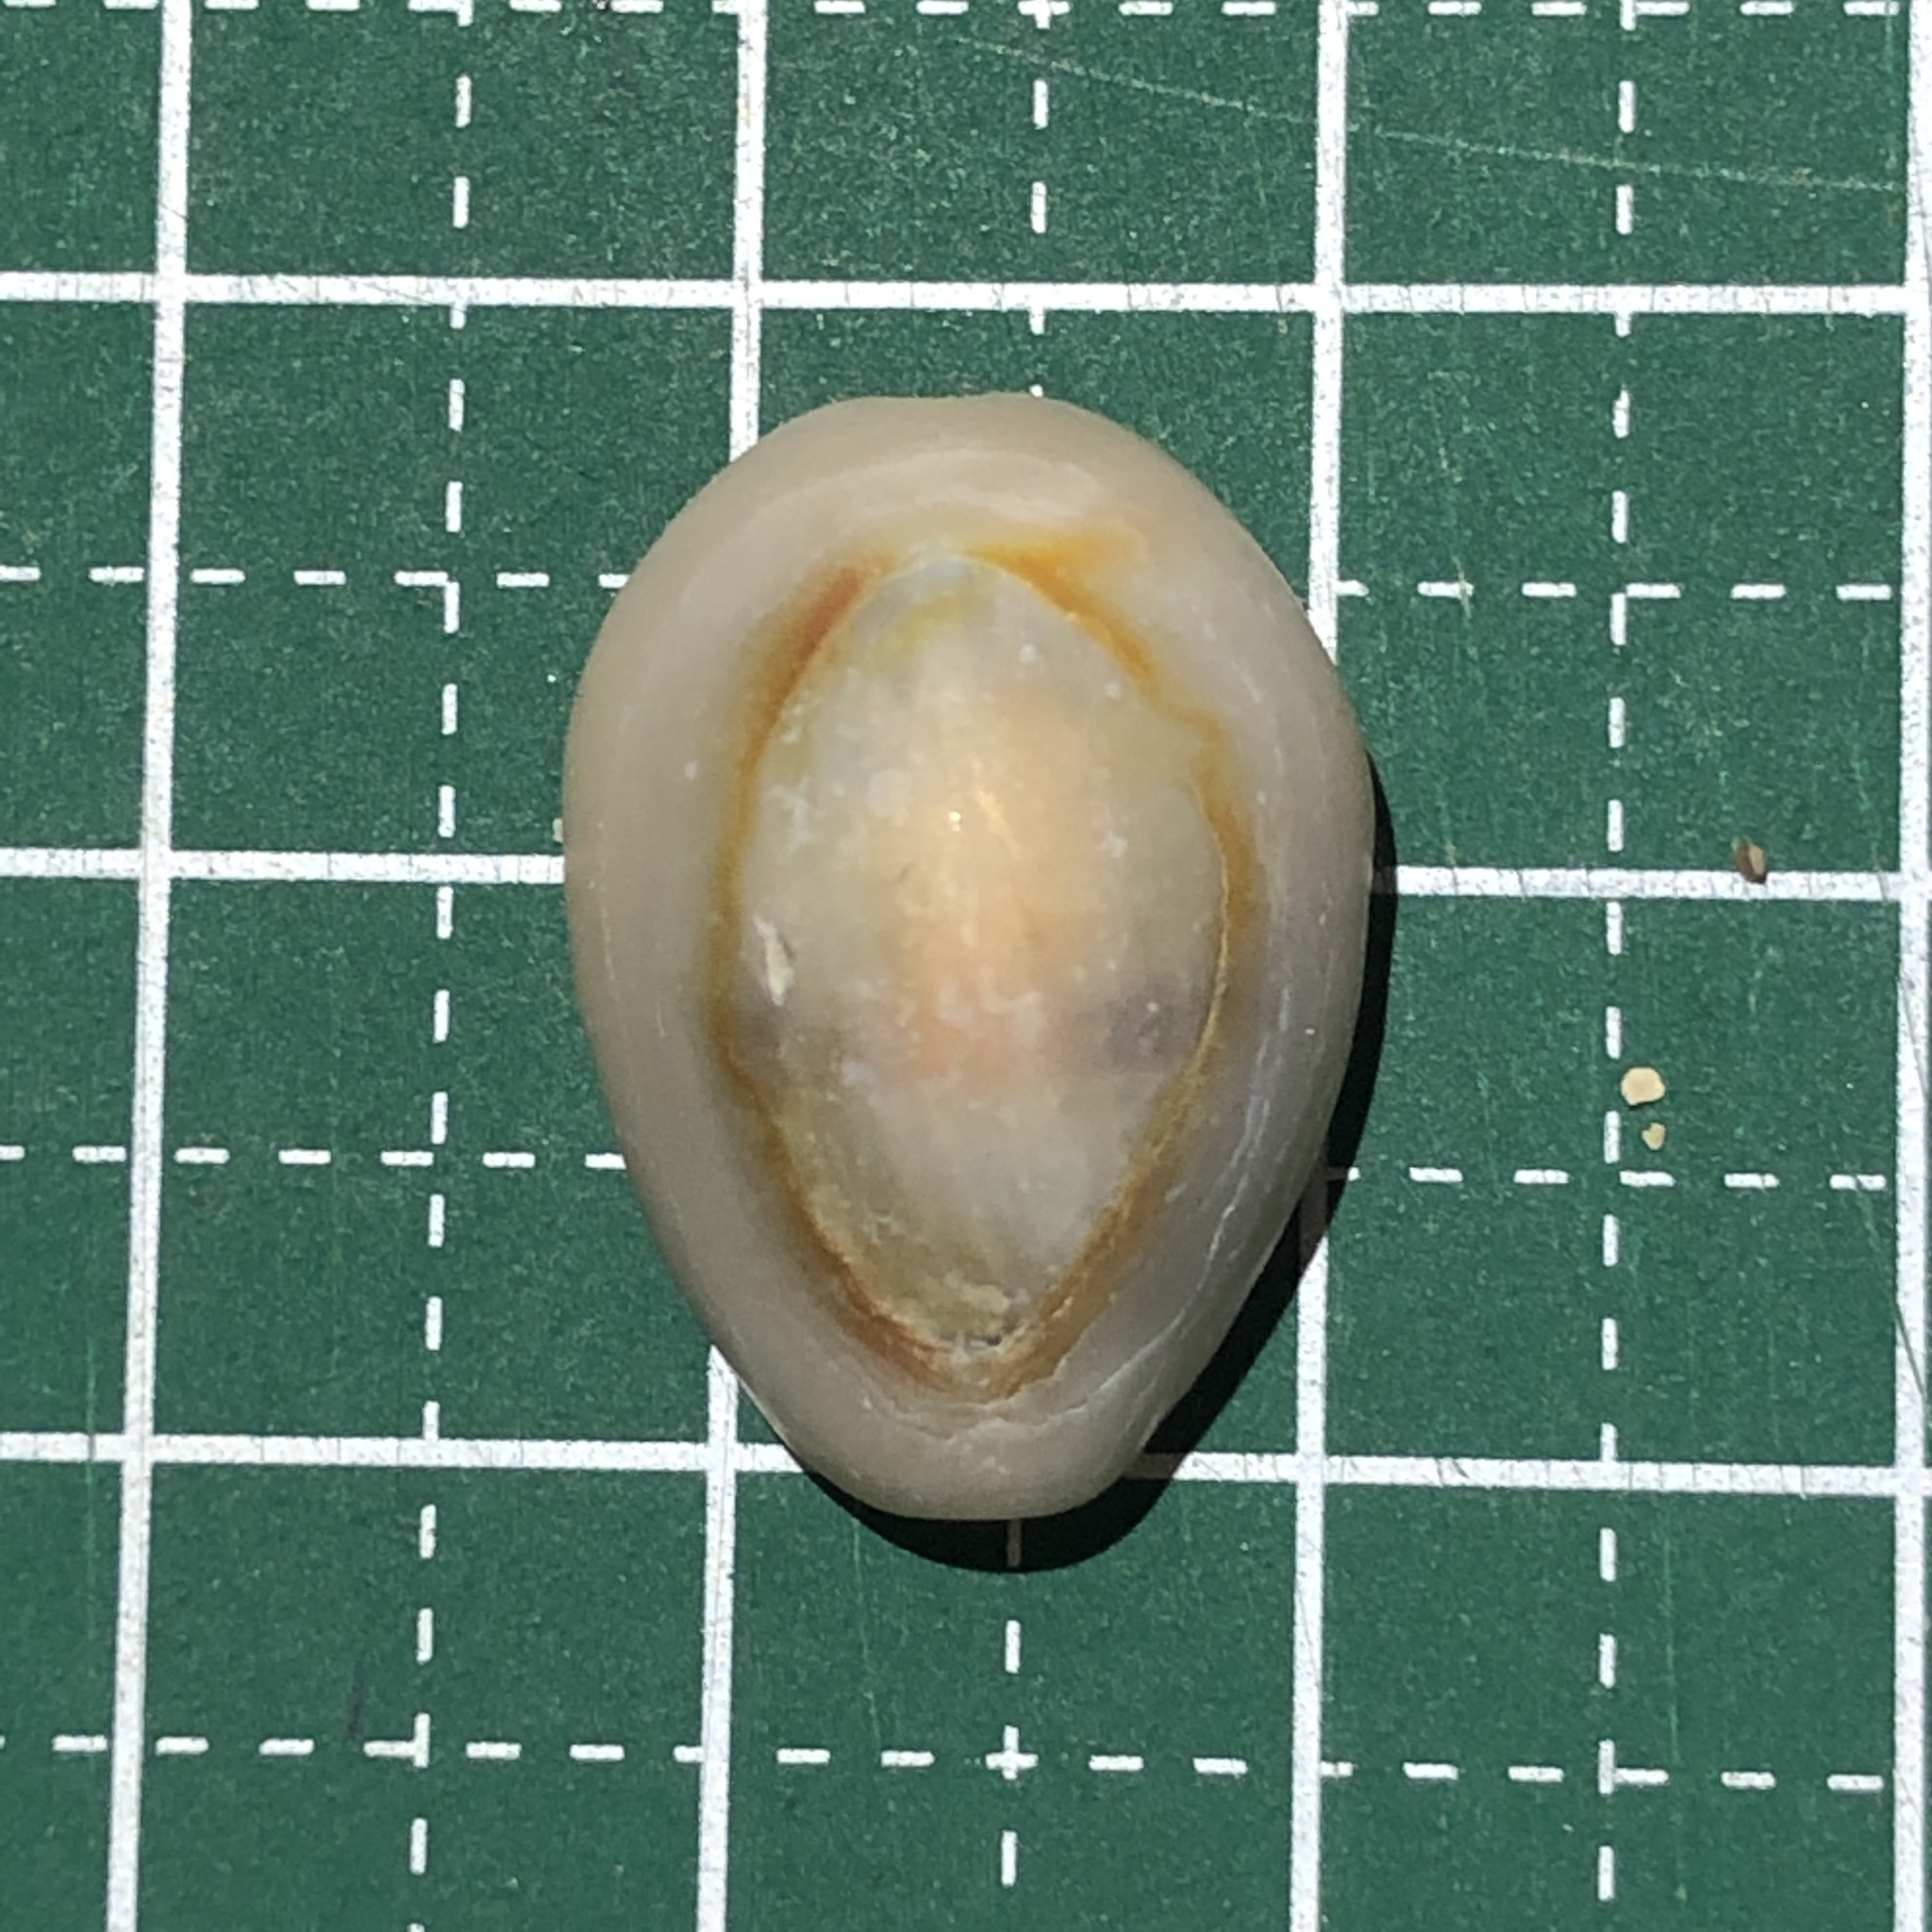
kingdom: Animalia
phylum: Mollusca
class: Gastropoda
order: Littorinimorpha
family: Cypraeidae
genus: Monetaria
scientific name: Monetaria annulus
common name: Ring cowrie
